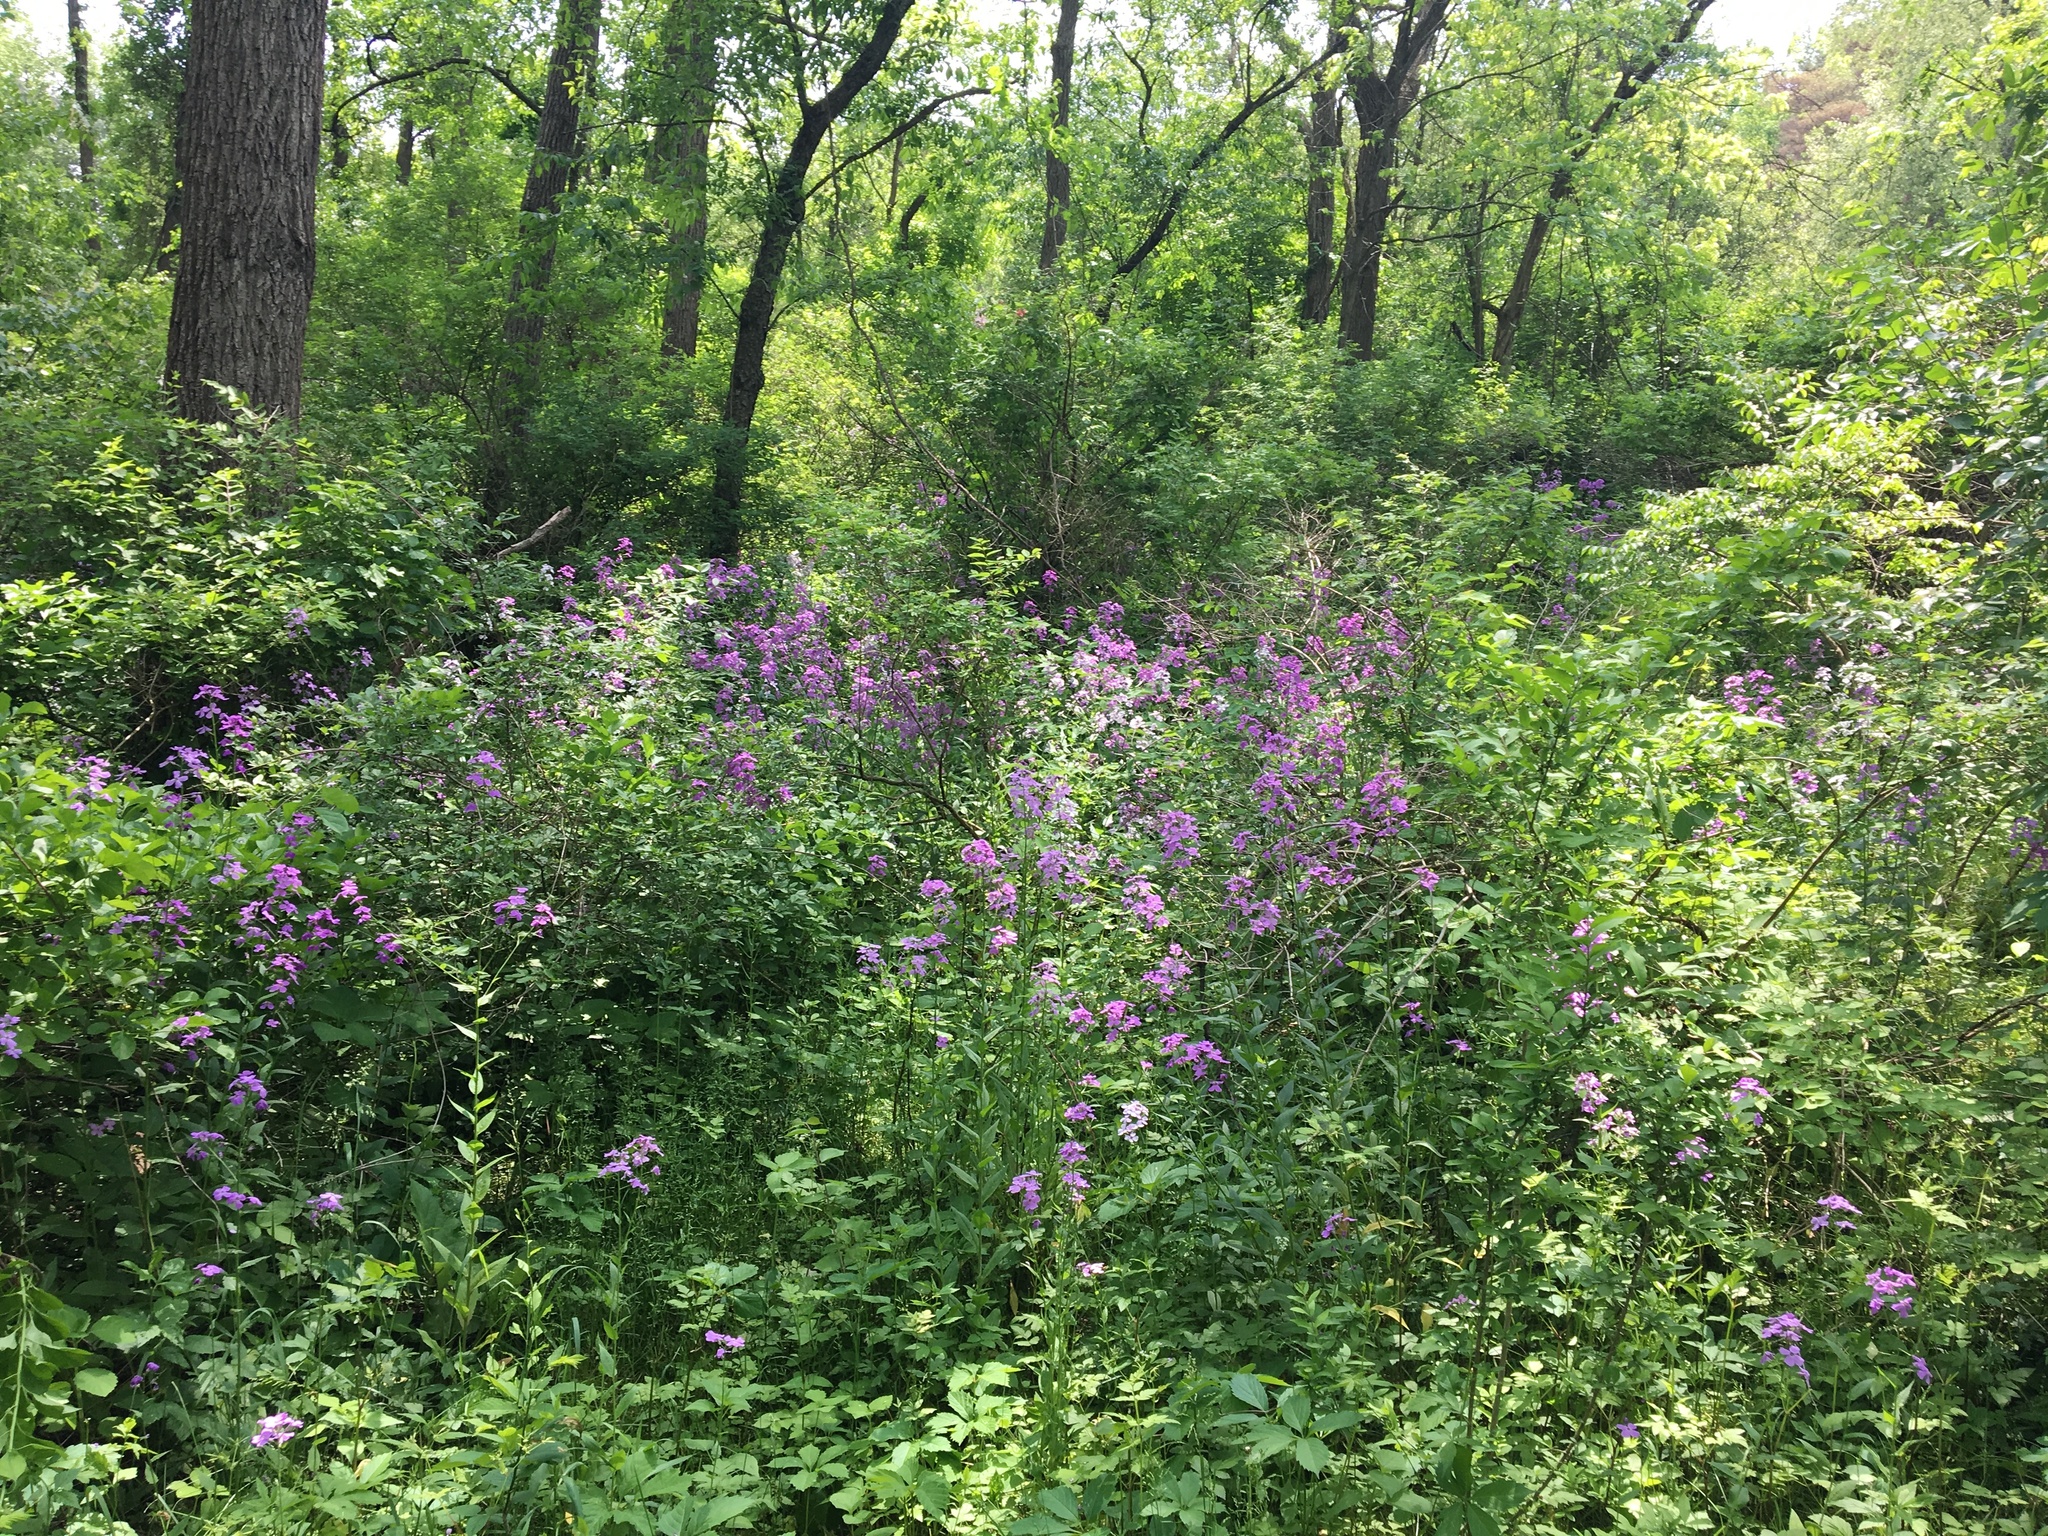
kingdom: Plantae
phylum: Tracheophyta
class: Magnoliopsida
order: Brassicales
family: Brassicaceae
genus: Hesperis
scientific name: Hesperis matronalis
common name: Dame's-violet
